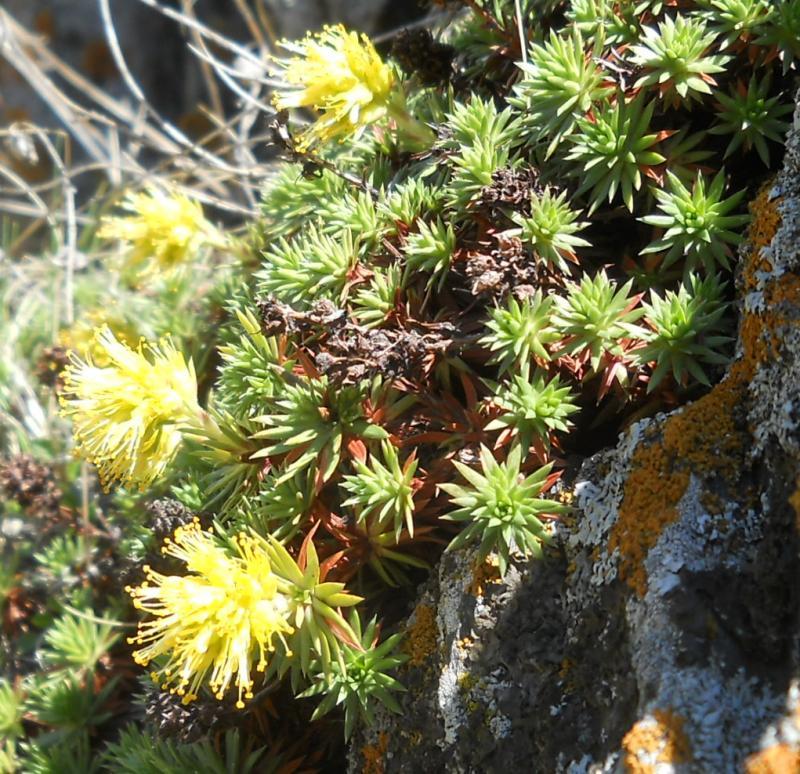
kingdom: Plantae
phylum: Tracheophyta
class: Magnoliopsida
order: Saxifragales
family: Saxifragaceae
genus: Saxifraga
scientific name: Saxifraga juniperifolia
